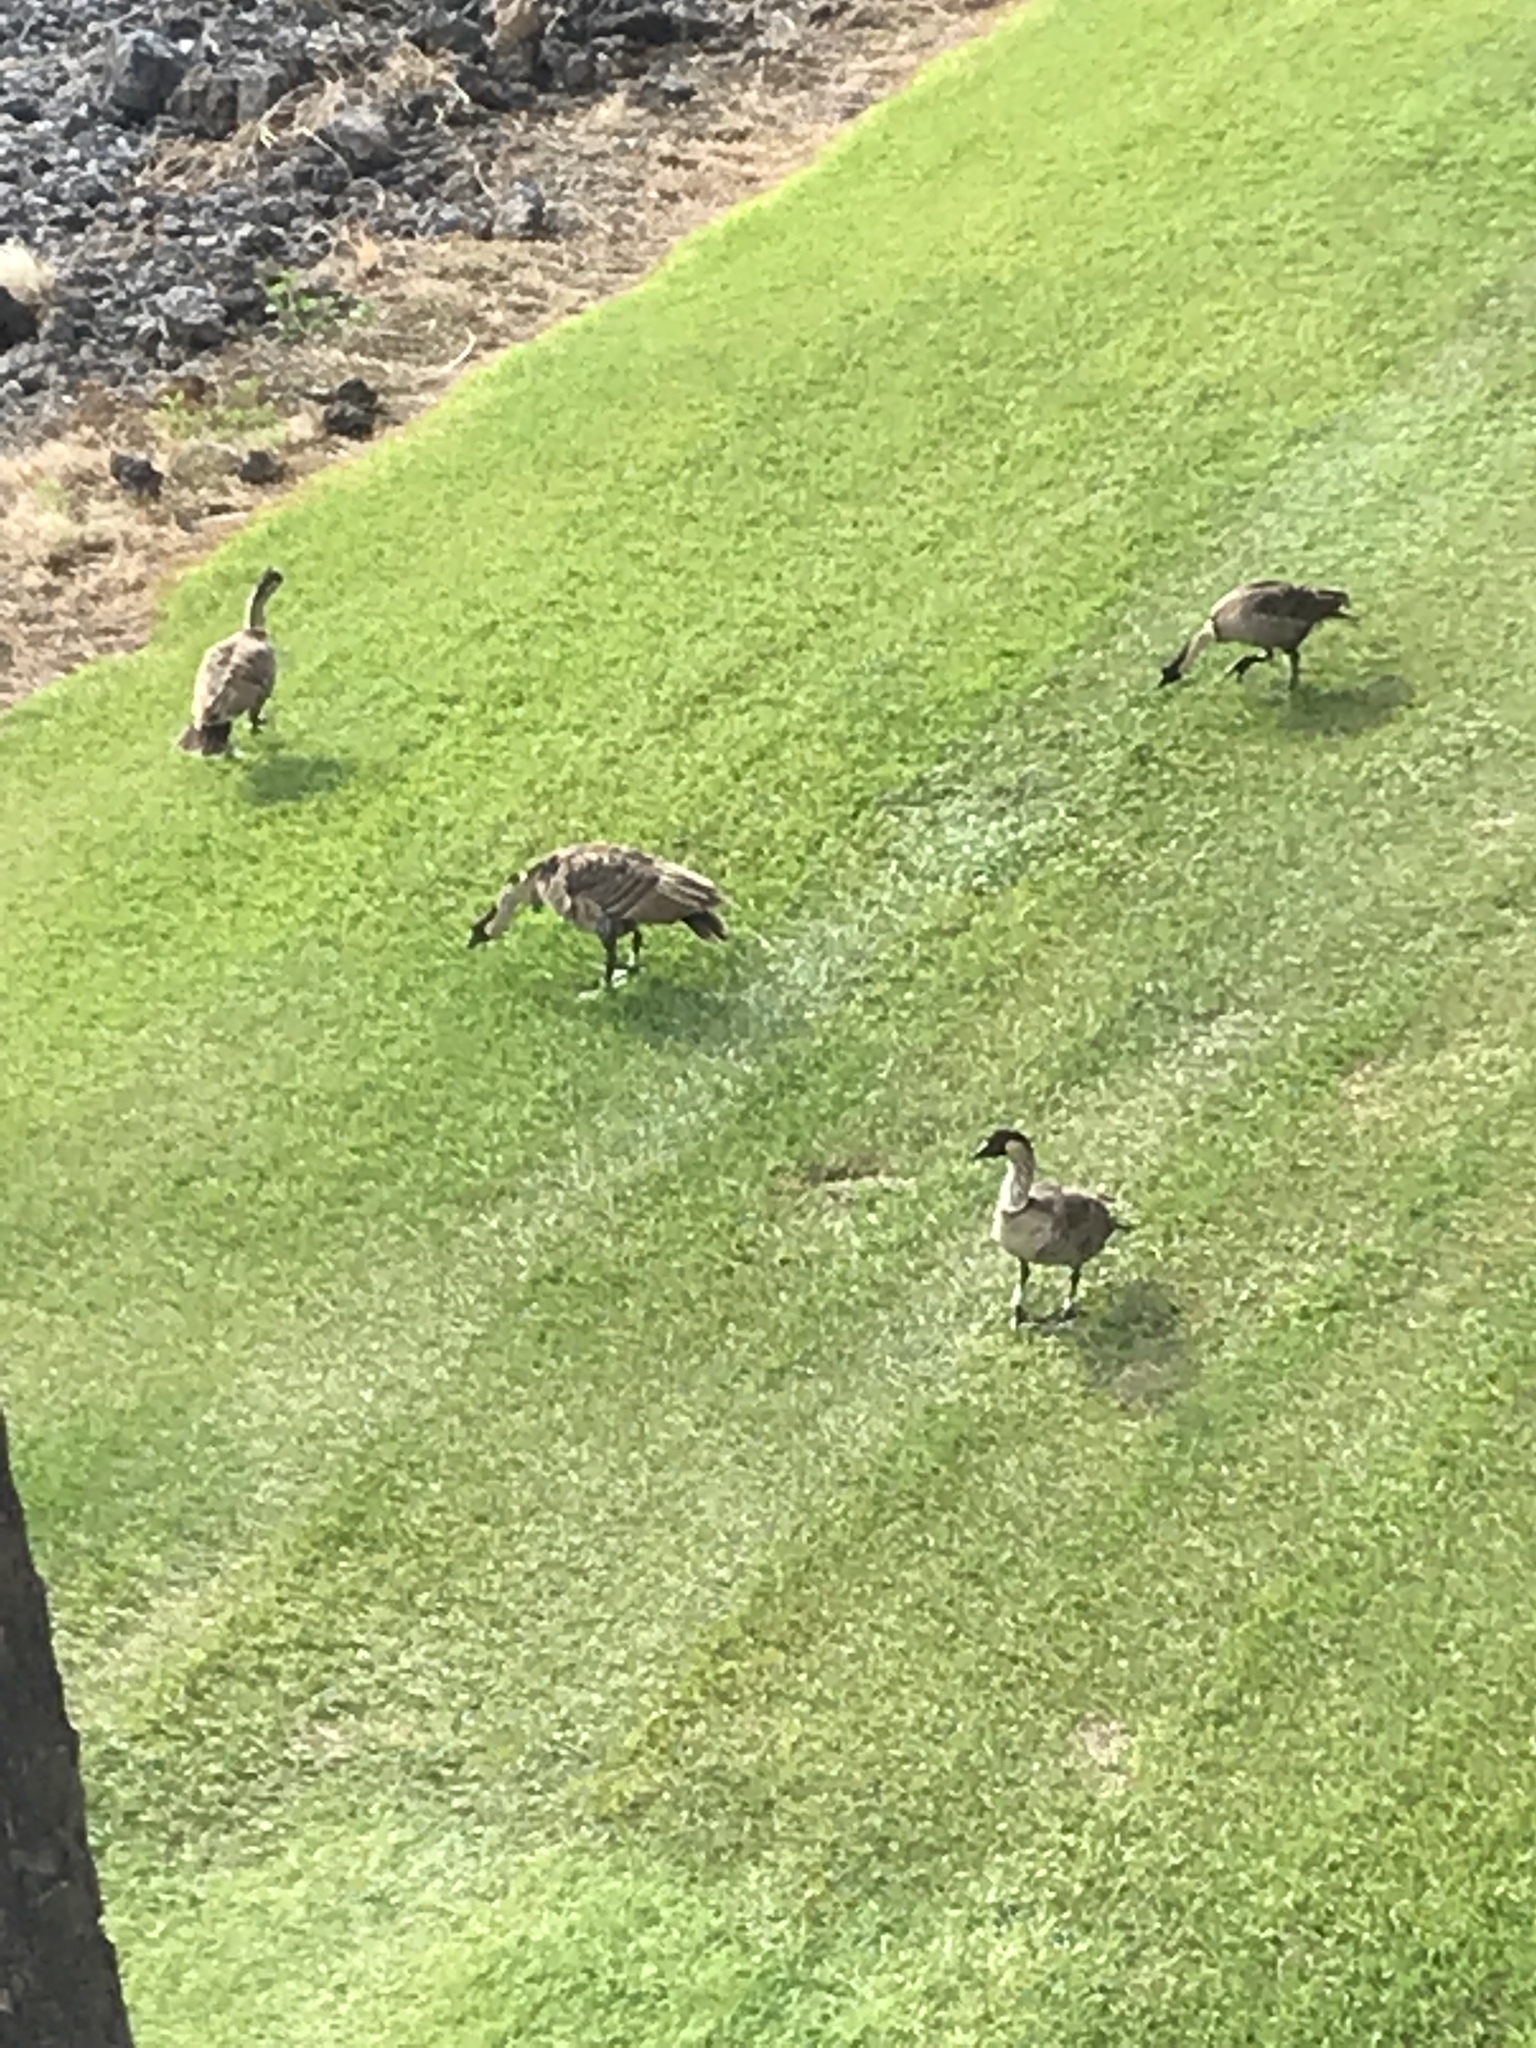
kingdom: Animalia
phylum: Chordata
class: Aves
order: Anseriformes
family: Anatidae
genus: Branta
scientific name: Branta sandvicensis
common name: Nene
